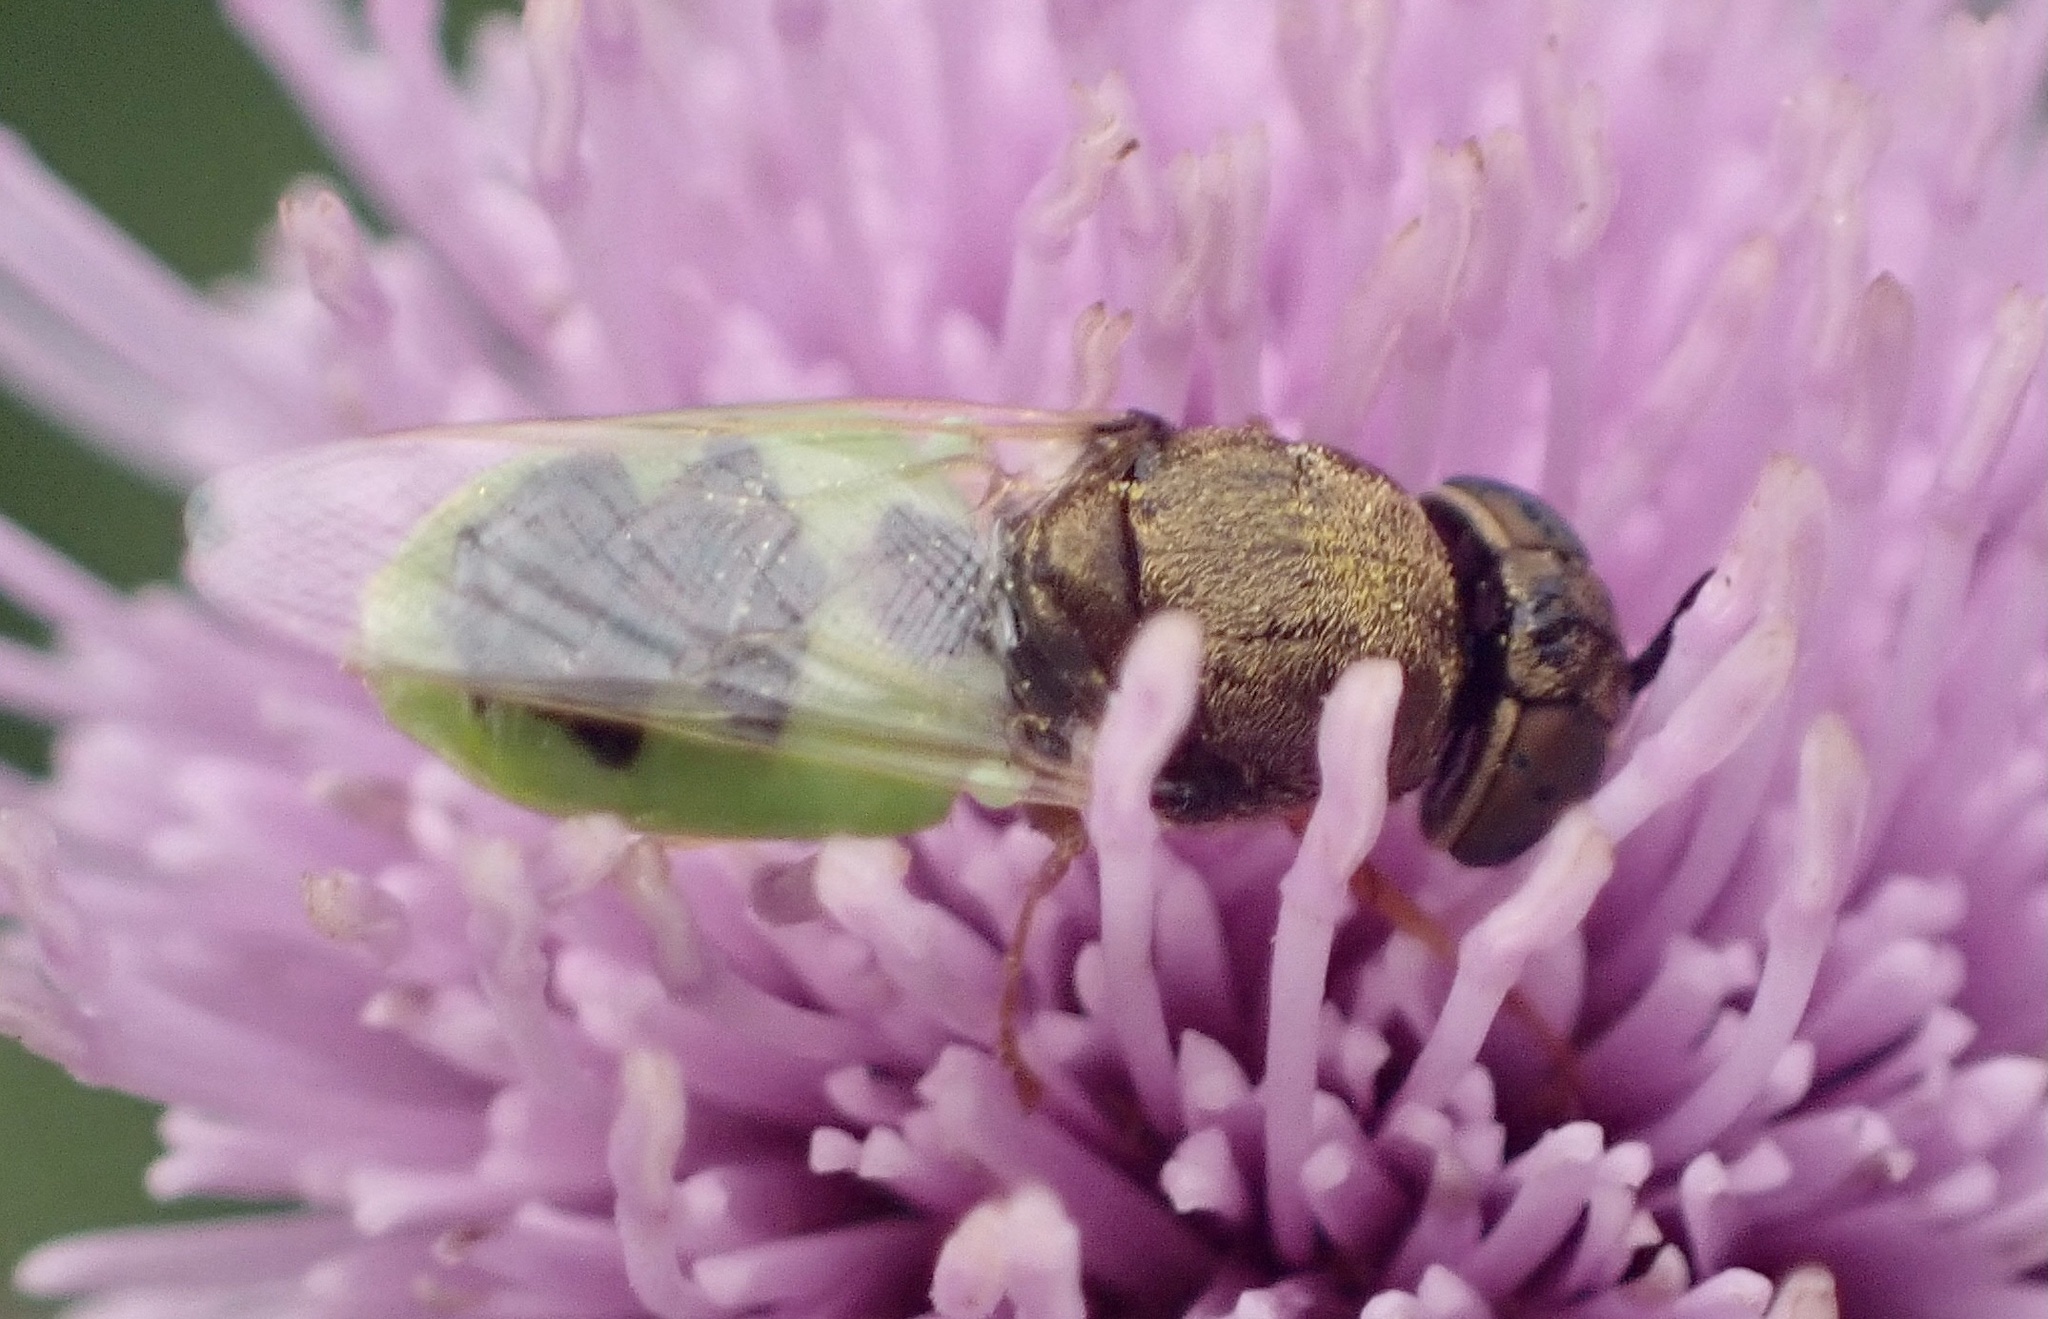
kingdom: Animalia
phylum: Arthropoda
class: Insecta
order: Diptera
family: Stratiomyidae
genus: Oplodontha
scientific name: Oplodontha viridula
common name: Common green colonel
